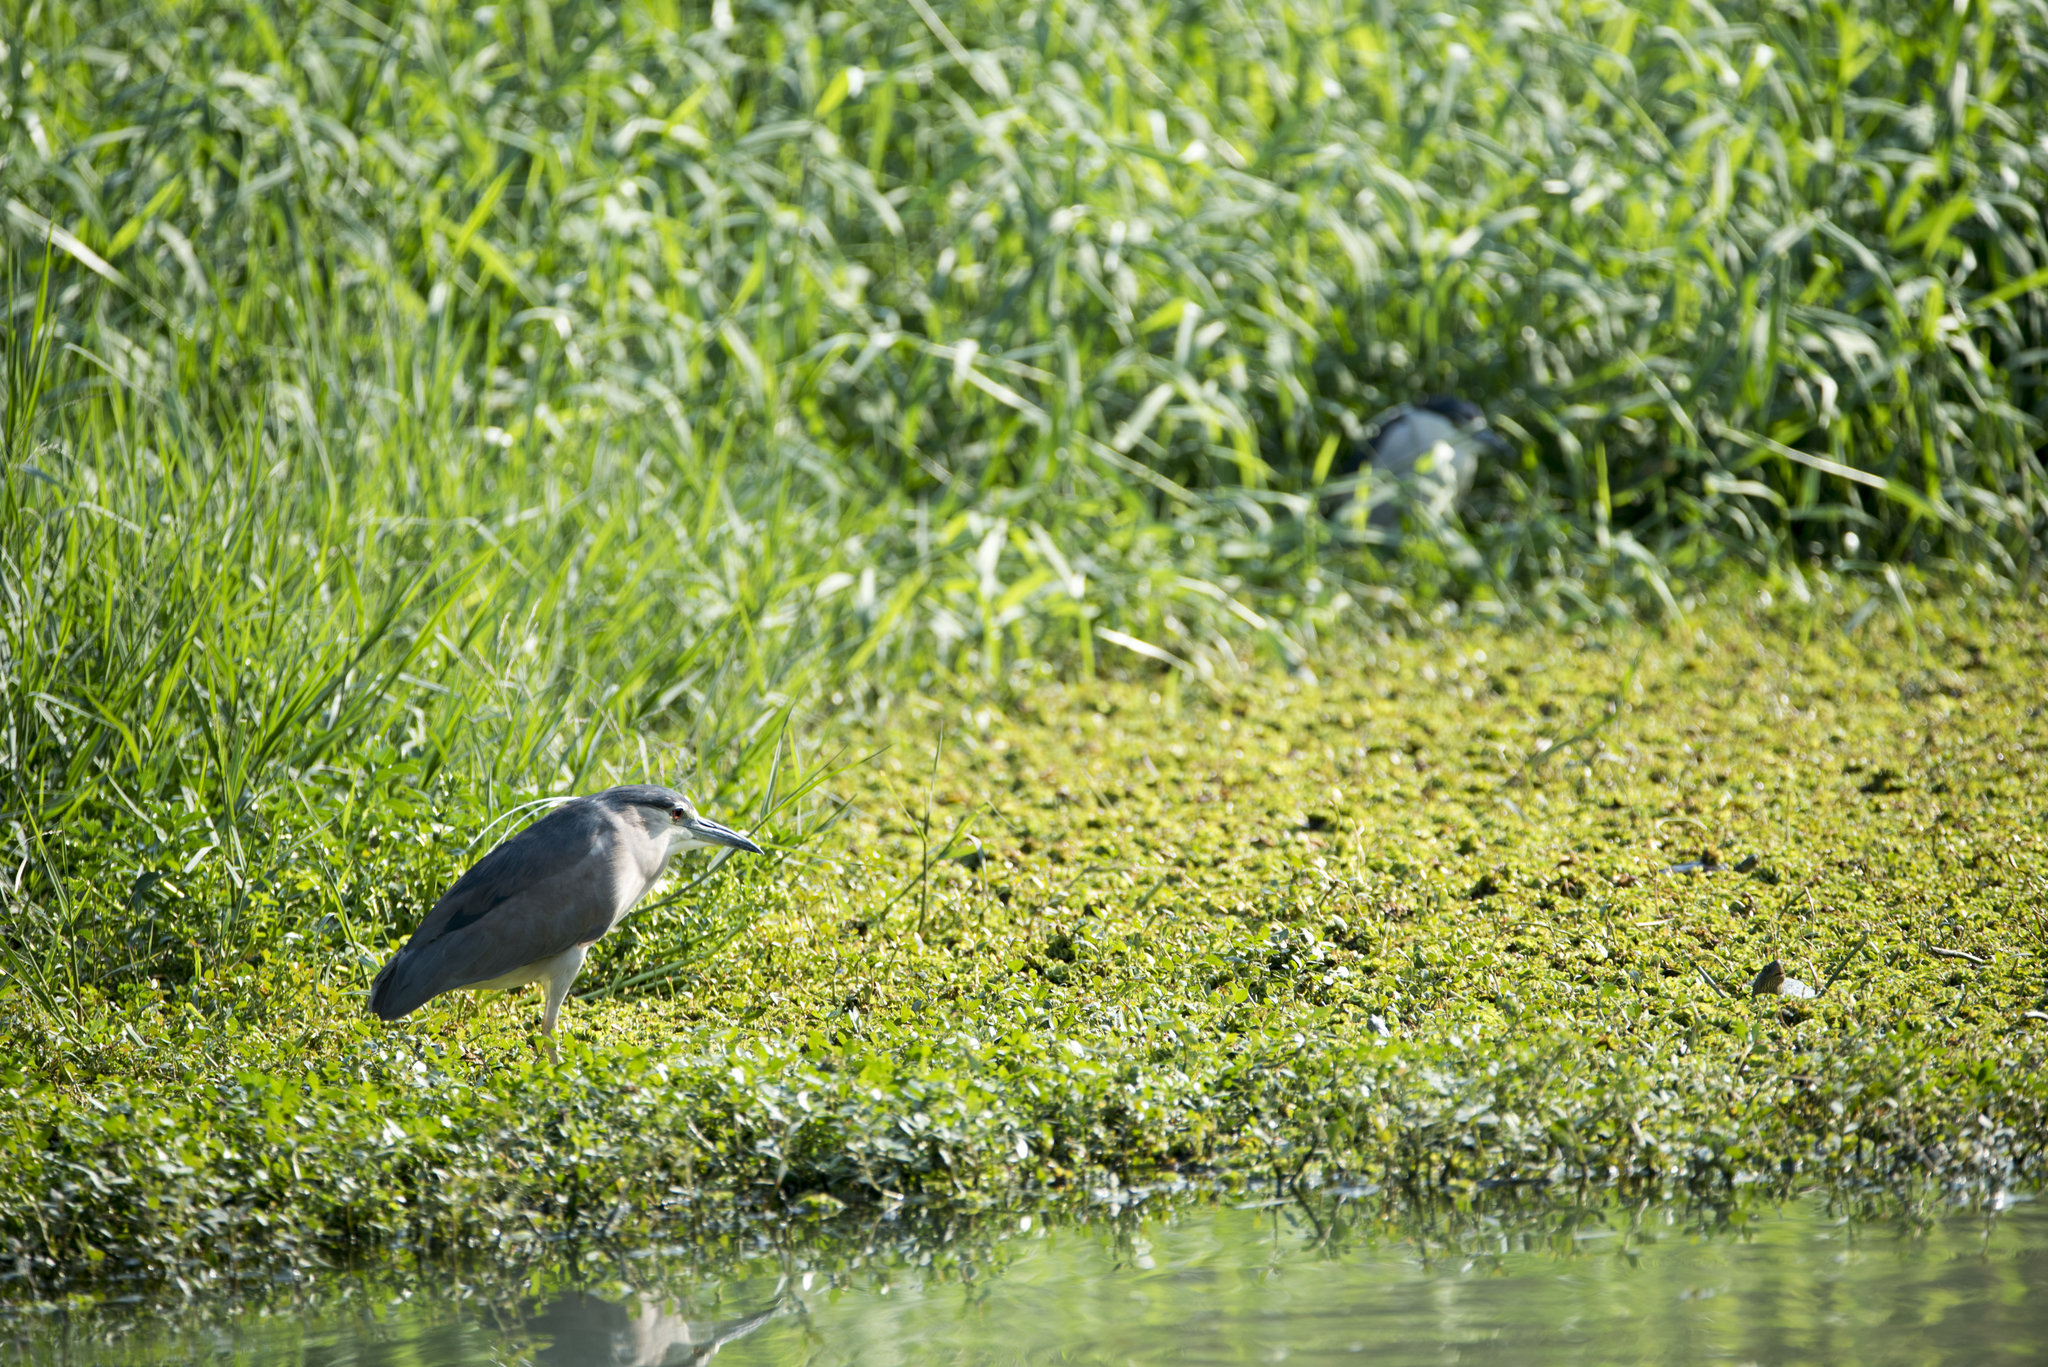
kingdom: Animalia
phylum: Chordata
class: Aves
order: Pelecaniformes
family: Ardeidae
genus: Nycticorax
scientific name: Nycticorax nycticorax
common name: Black-crowned night heron
